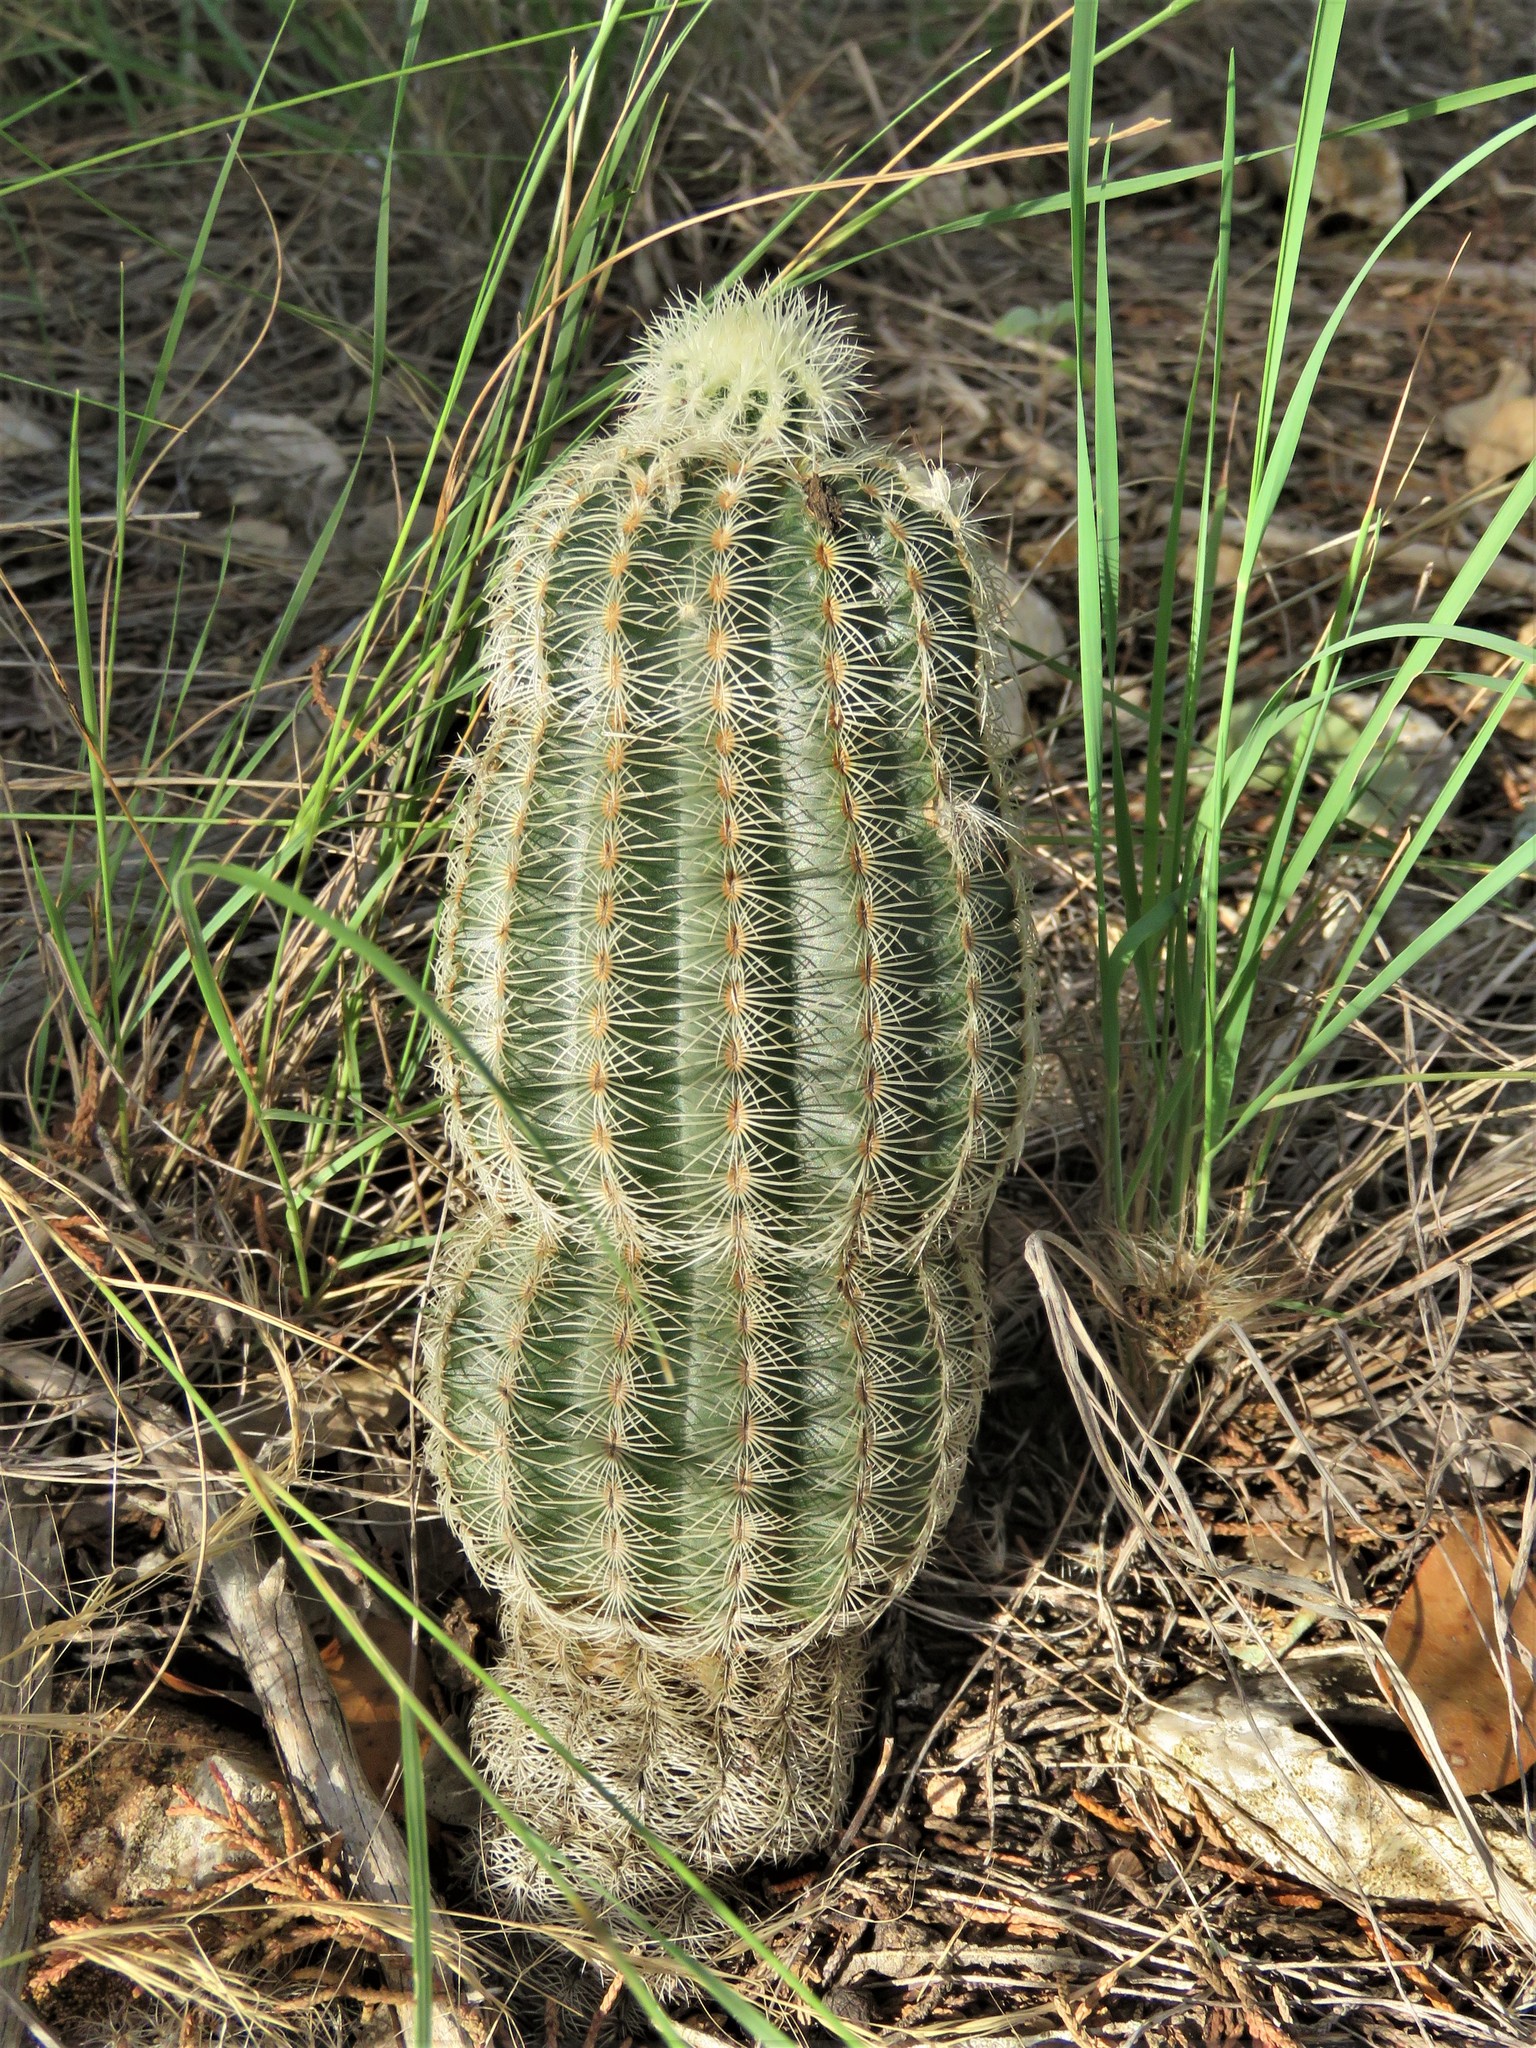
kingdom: Plantae
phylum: Tracheophyta
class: Magnoliopsida
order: Caryophyllales
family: Cactaceae
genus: Echinocereus
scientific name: Echinocereus reichenbachii
